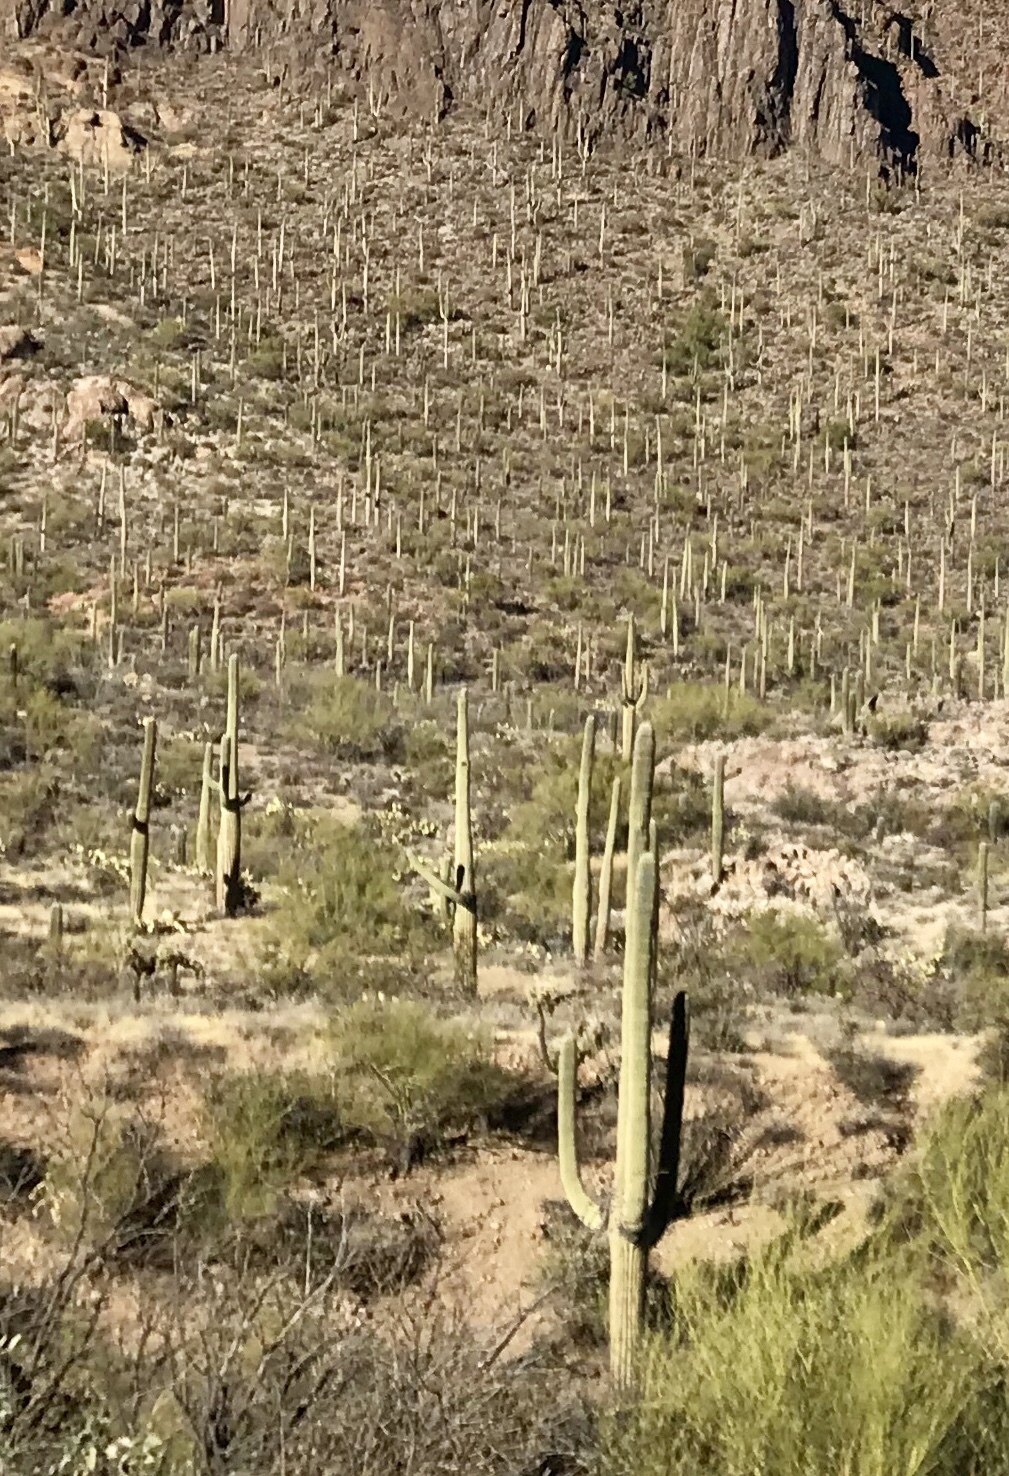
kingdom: Plantae
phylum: Tracheophyta
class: Magnoliopsida
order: Caryophyllales
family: Cactaceae
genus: Carnegiea
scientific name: Carnegiea gigantea
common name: Saguaro
